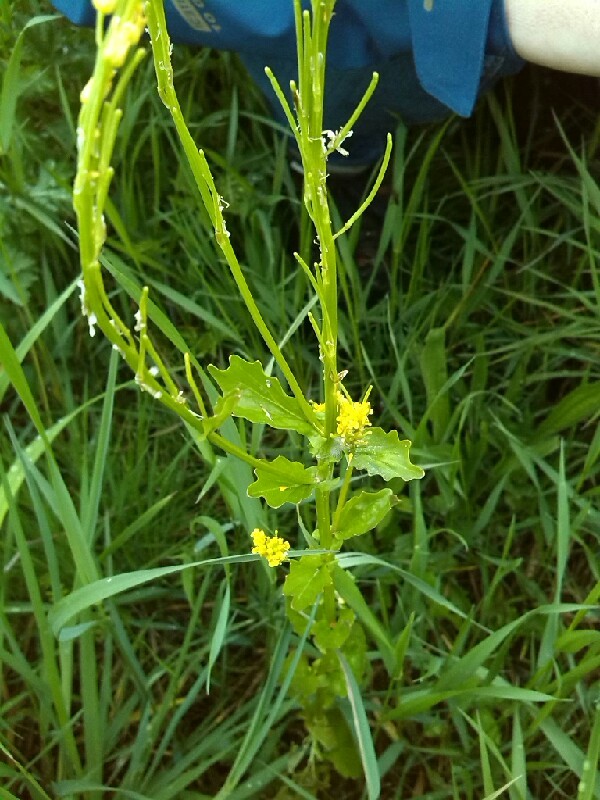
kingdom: Plantae
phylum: Tracheophyta
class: Magnoliopsida
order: Brassicales
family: Brassicaceae
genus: Barbarea
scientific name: Barbarea stricta
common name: Small-flowered winter-cress
